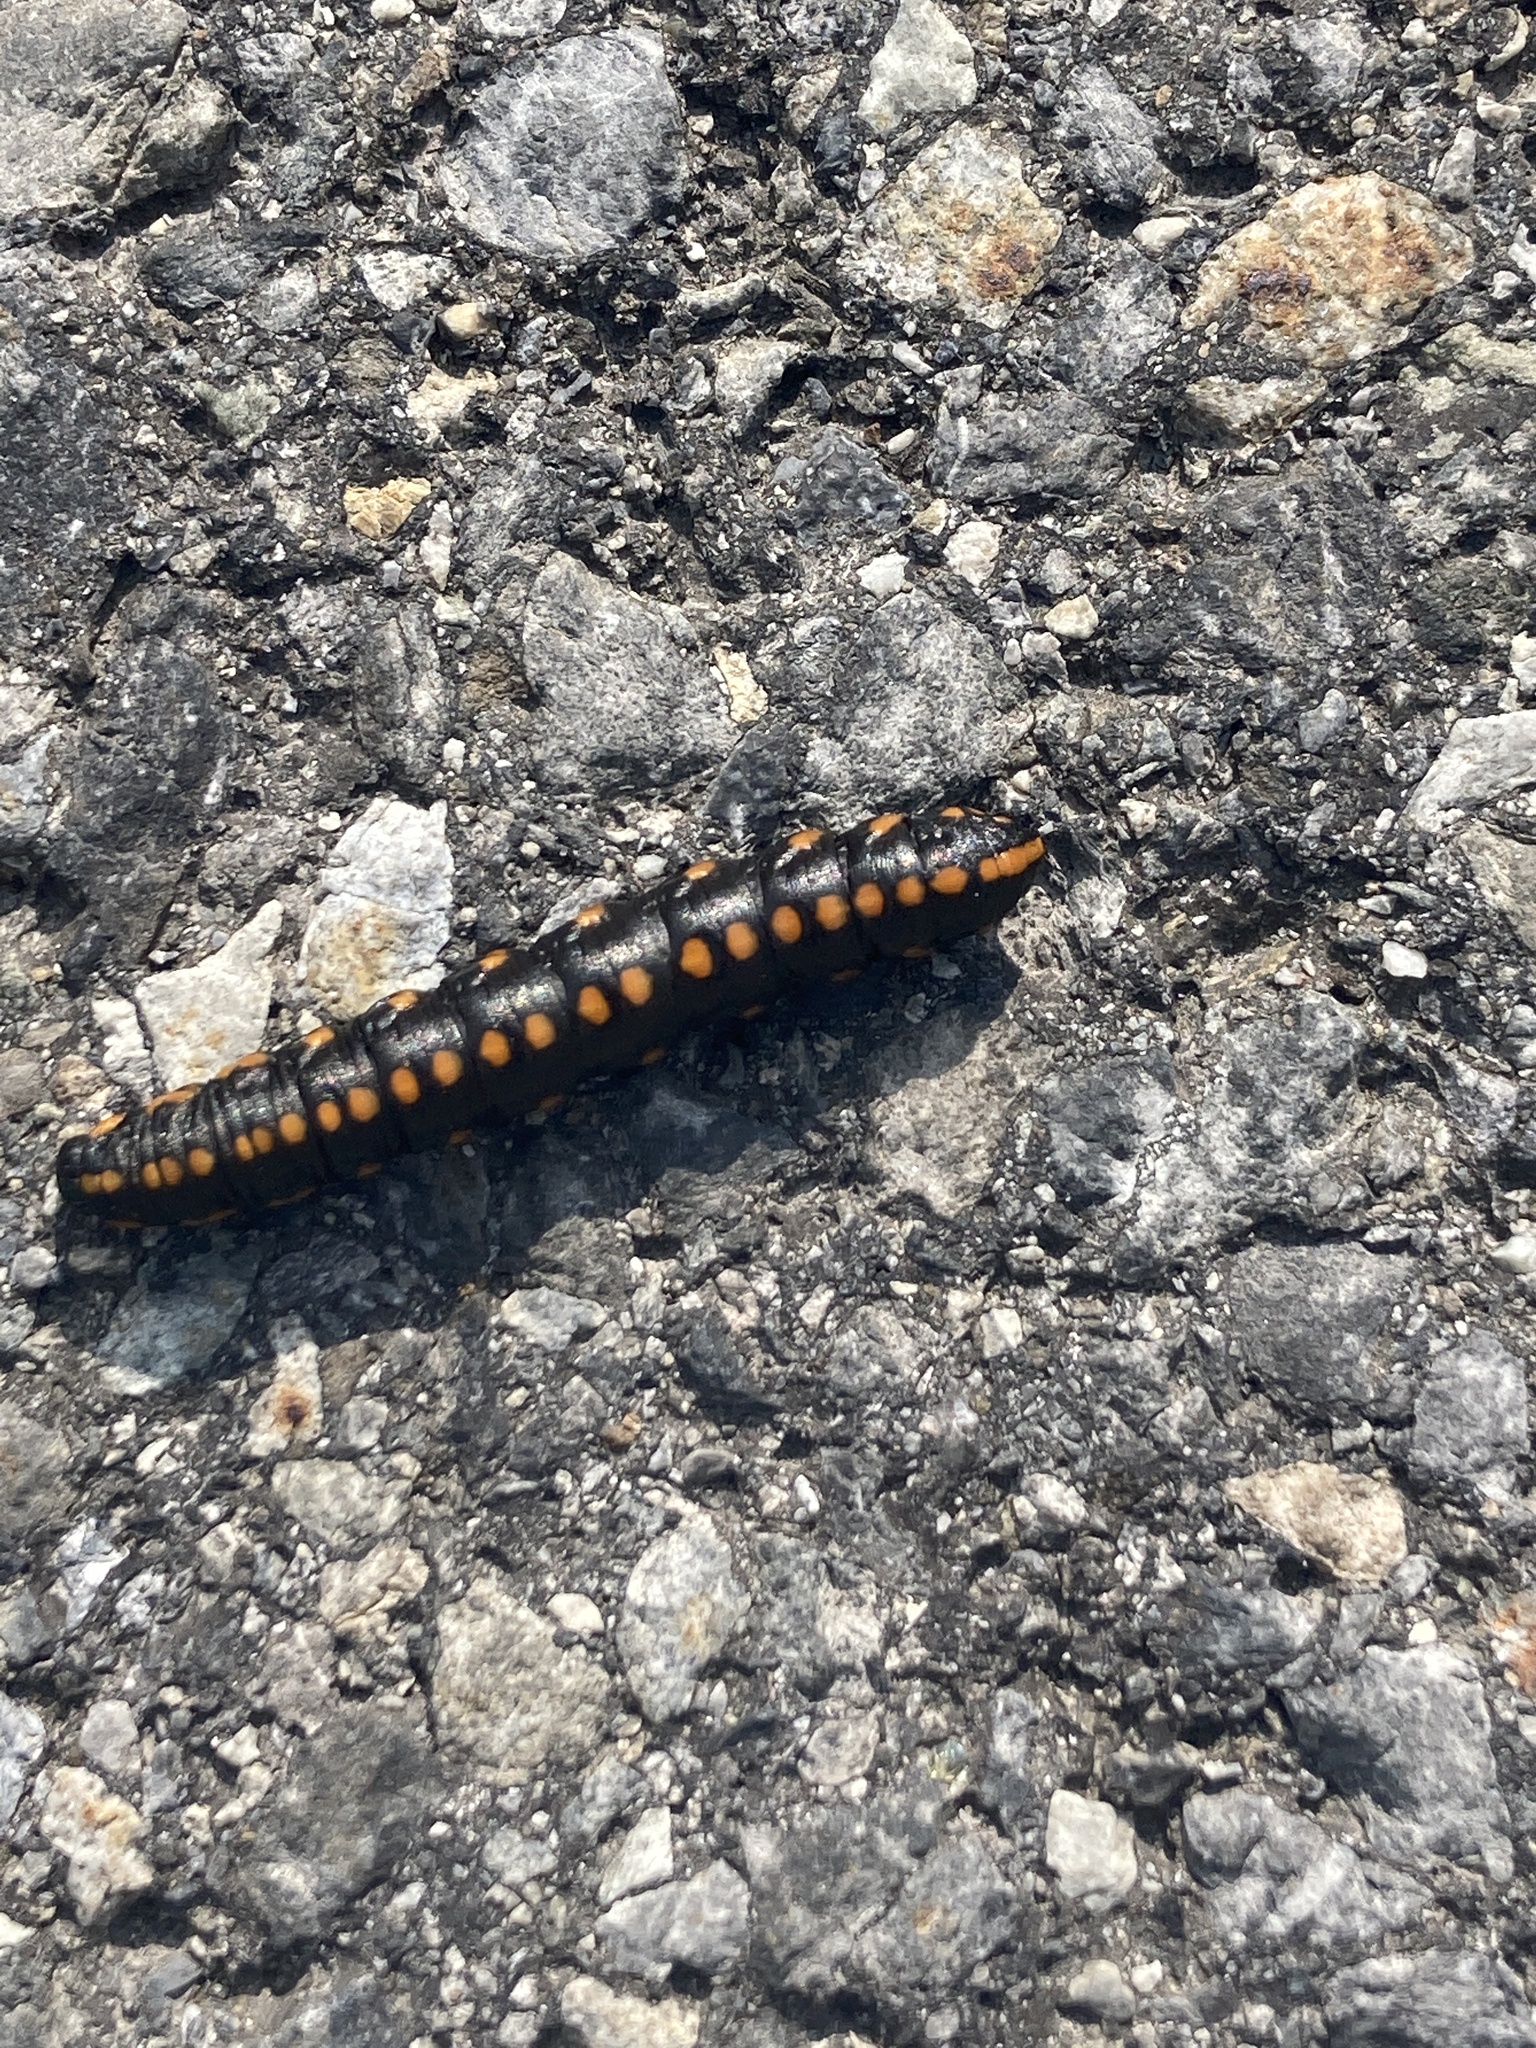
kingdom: Animalia
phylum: Arthropoda
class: Insecta
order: Lepidoptera
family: Noctuidae
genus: Cucullia
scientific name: Cucullia lucifuga
